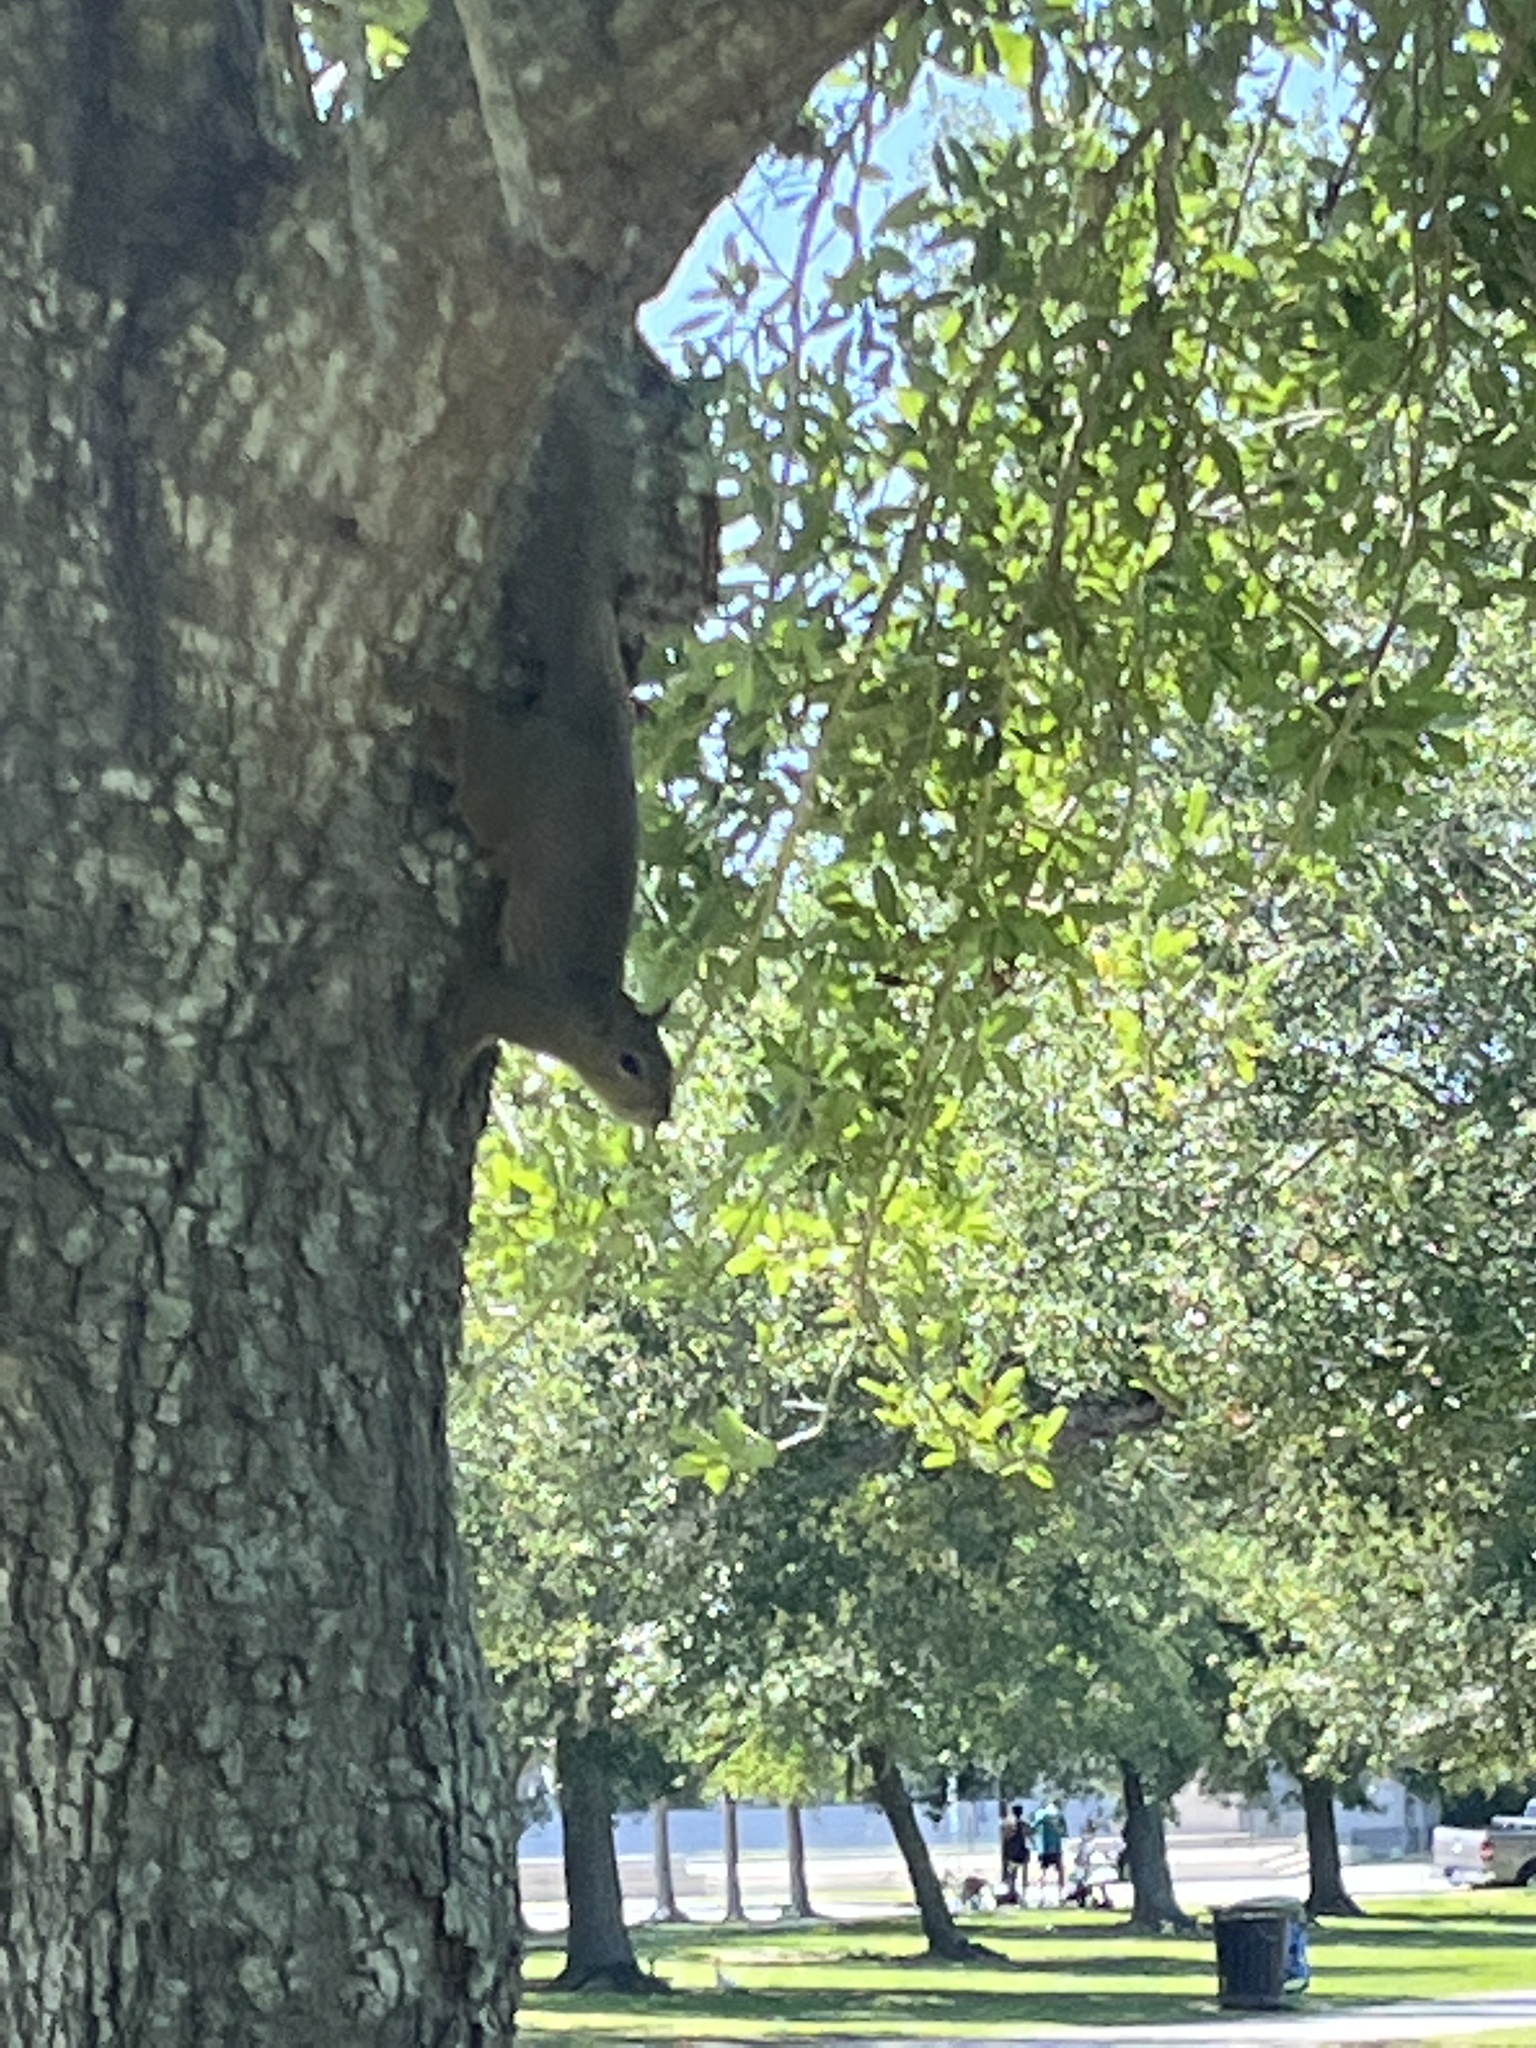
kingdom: Animalia
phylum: Chordata
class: Mammalia
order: Rodentia
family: Sciuridae
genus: Sciurus
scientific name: Sciurus carolinensis
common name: Eastern gray squirrel
